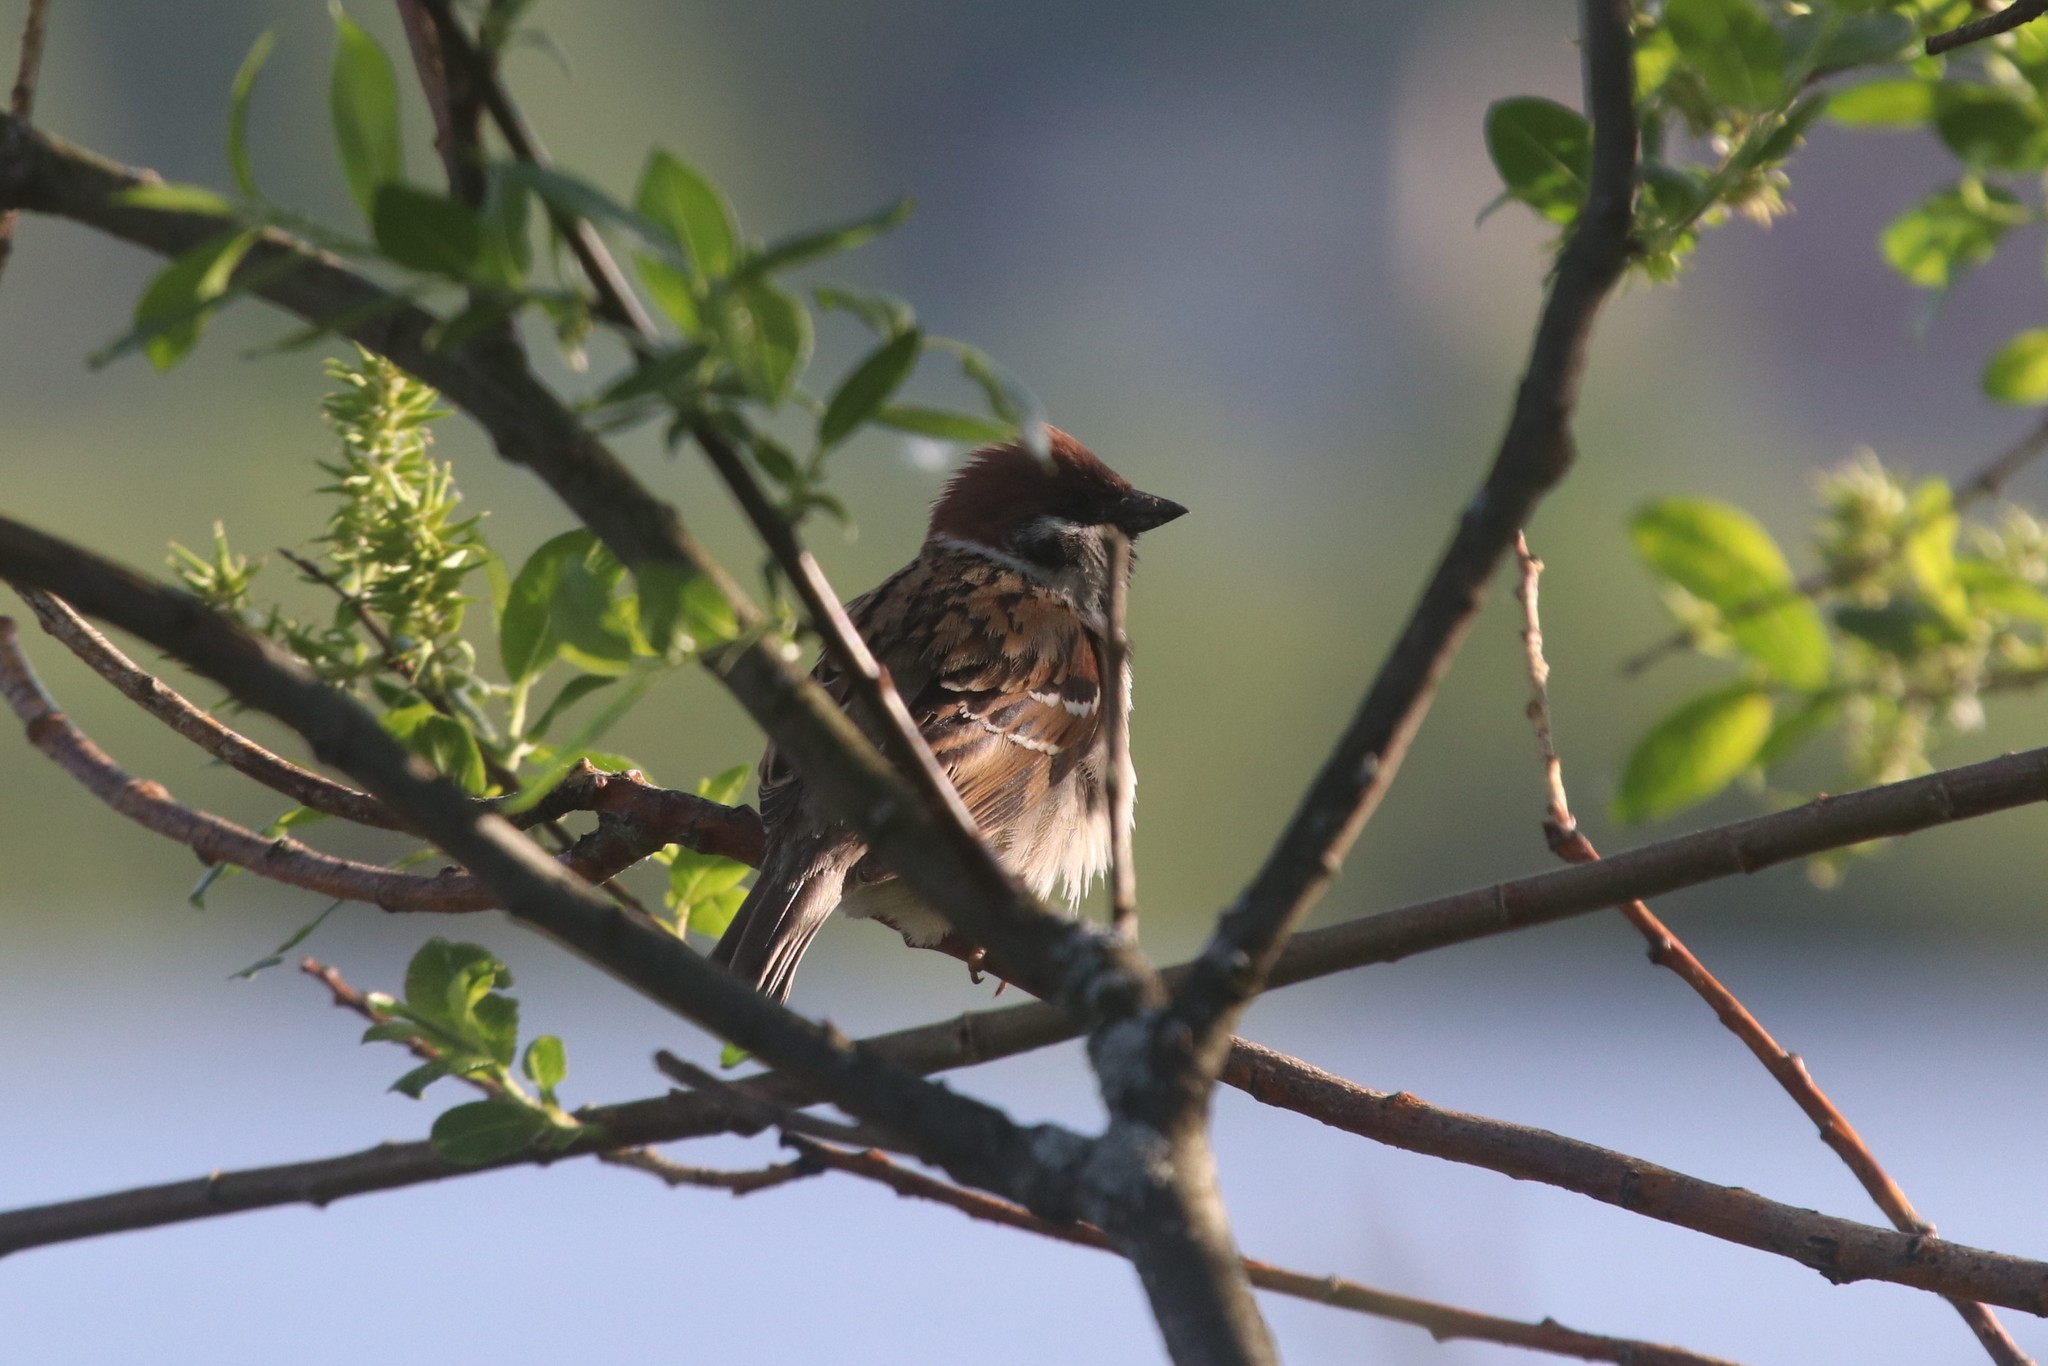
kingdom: Animalia
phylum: Chordata
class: Aves
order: Passeriformes
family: Passeridae
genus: Passer
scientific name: Passer montanus
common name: Eurasian tree sparrow
